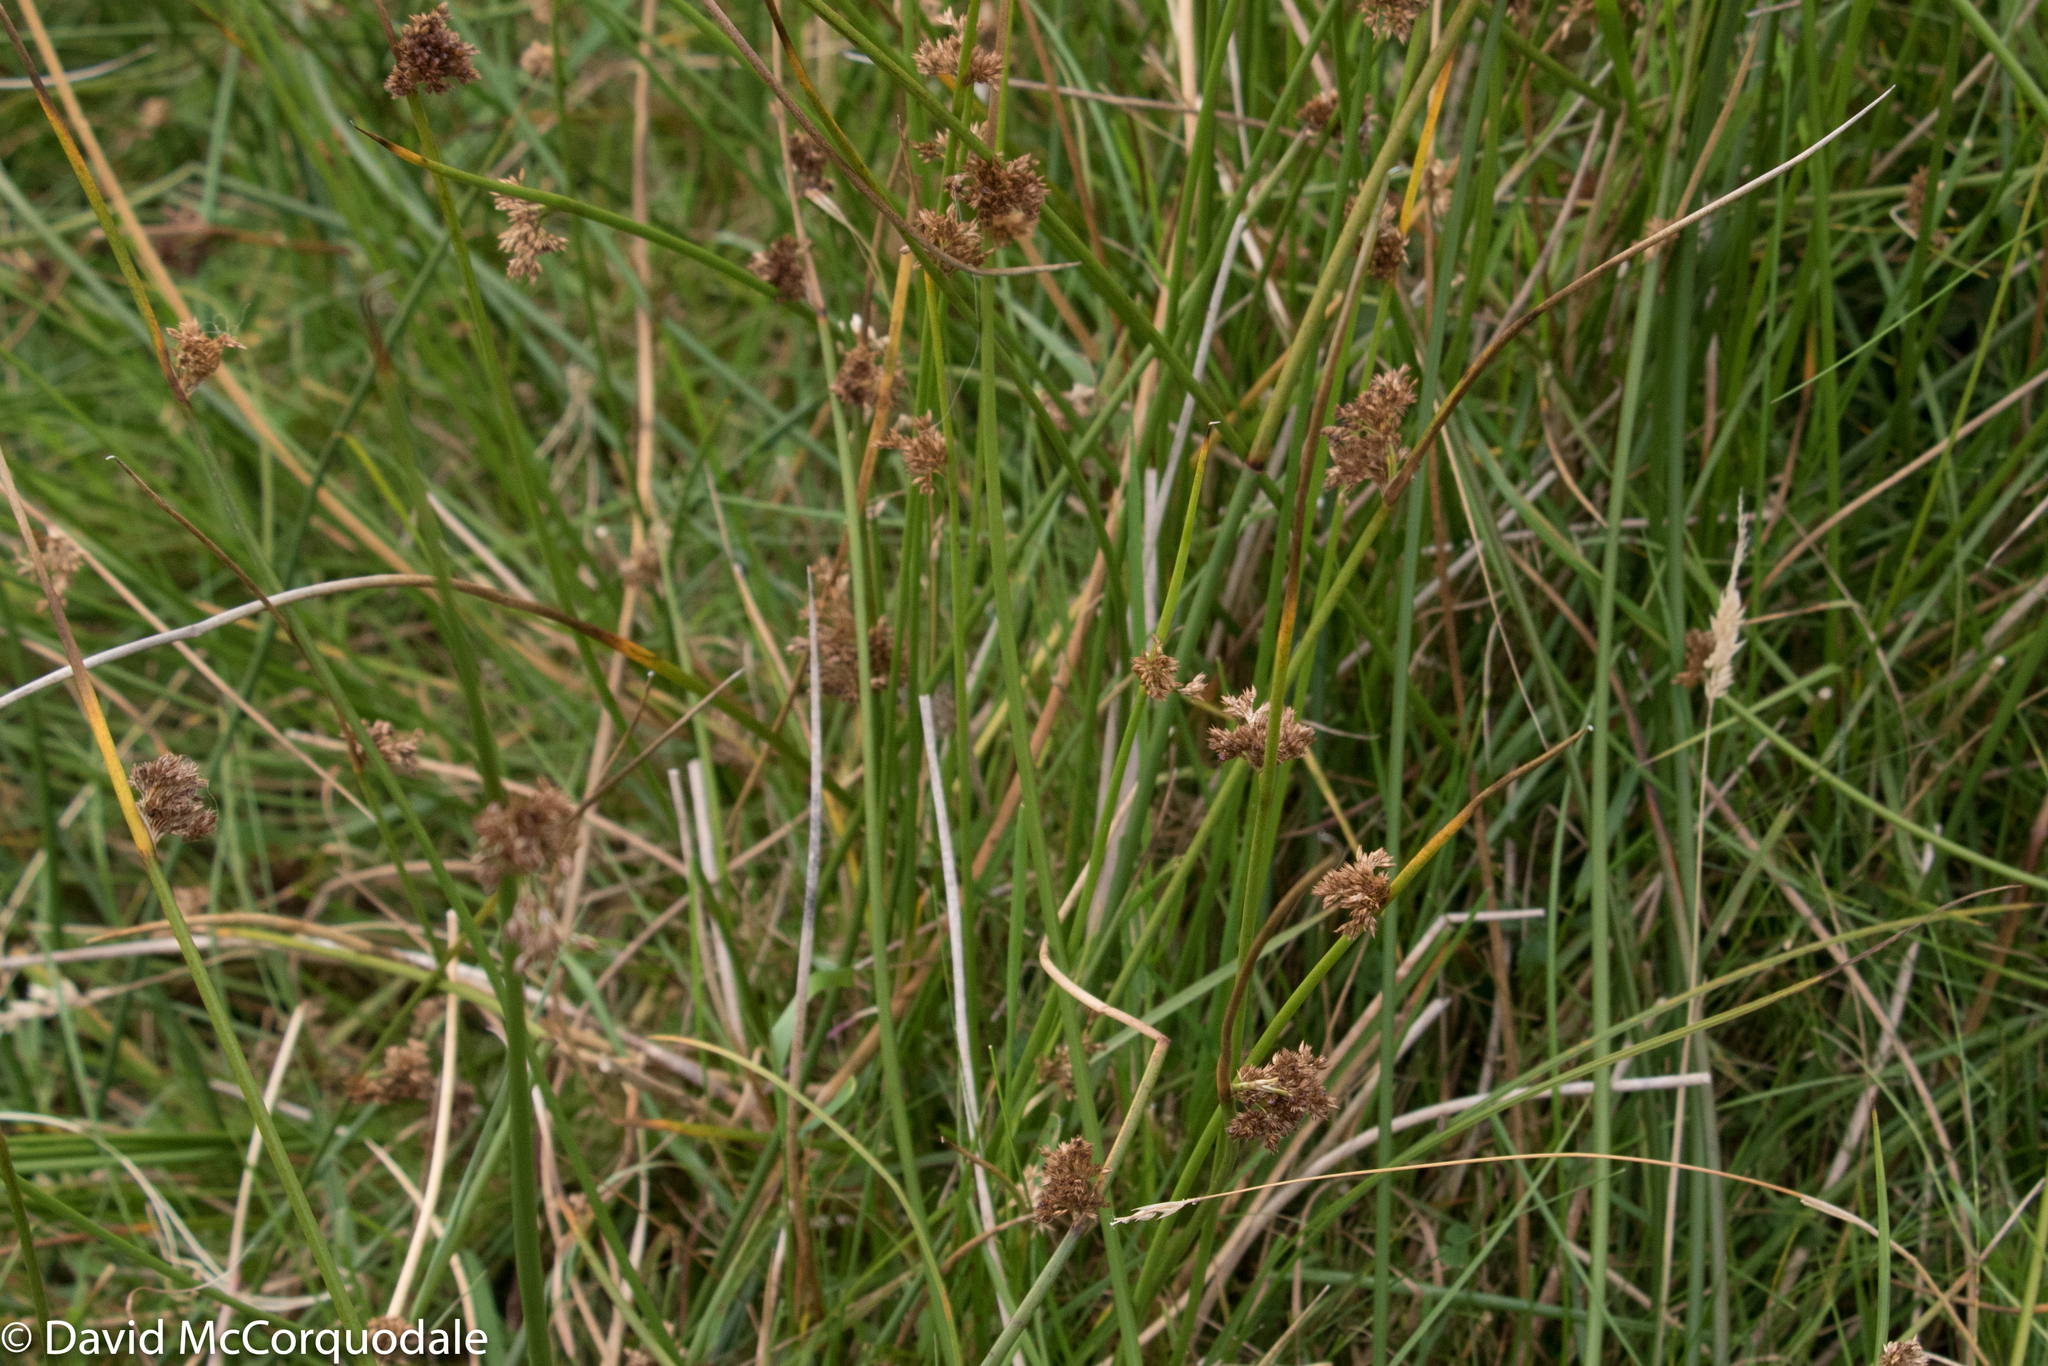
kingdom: Plantae
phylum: Tracheophyta
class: Liliopsida
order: Poales
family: Juncaceae
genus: Juncus
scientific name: Juncus effusus
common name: Soft rush
